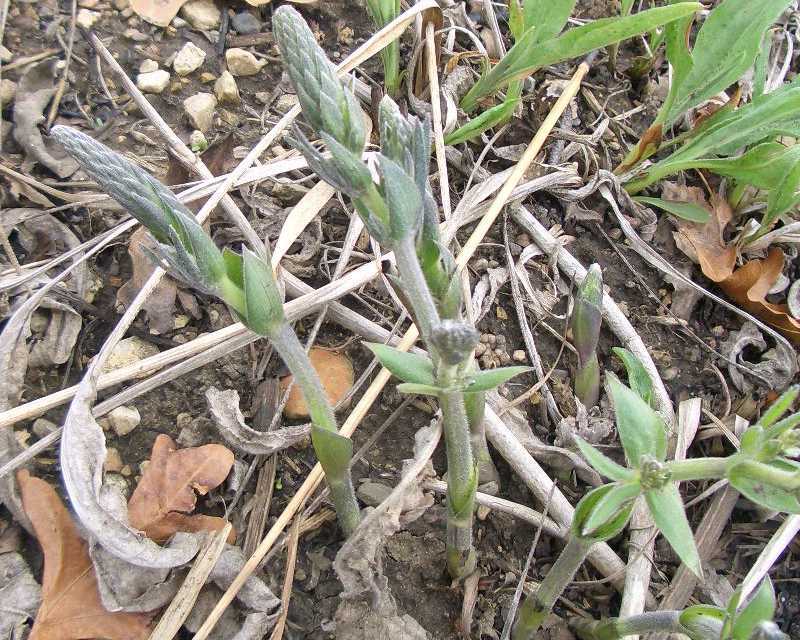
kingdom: Plantae
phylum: Tracheophyta
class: Magnoliopsida
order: Fabales
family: Fabaceae
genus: Baptisia
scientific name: Baptisia alba
